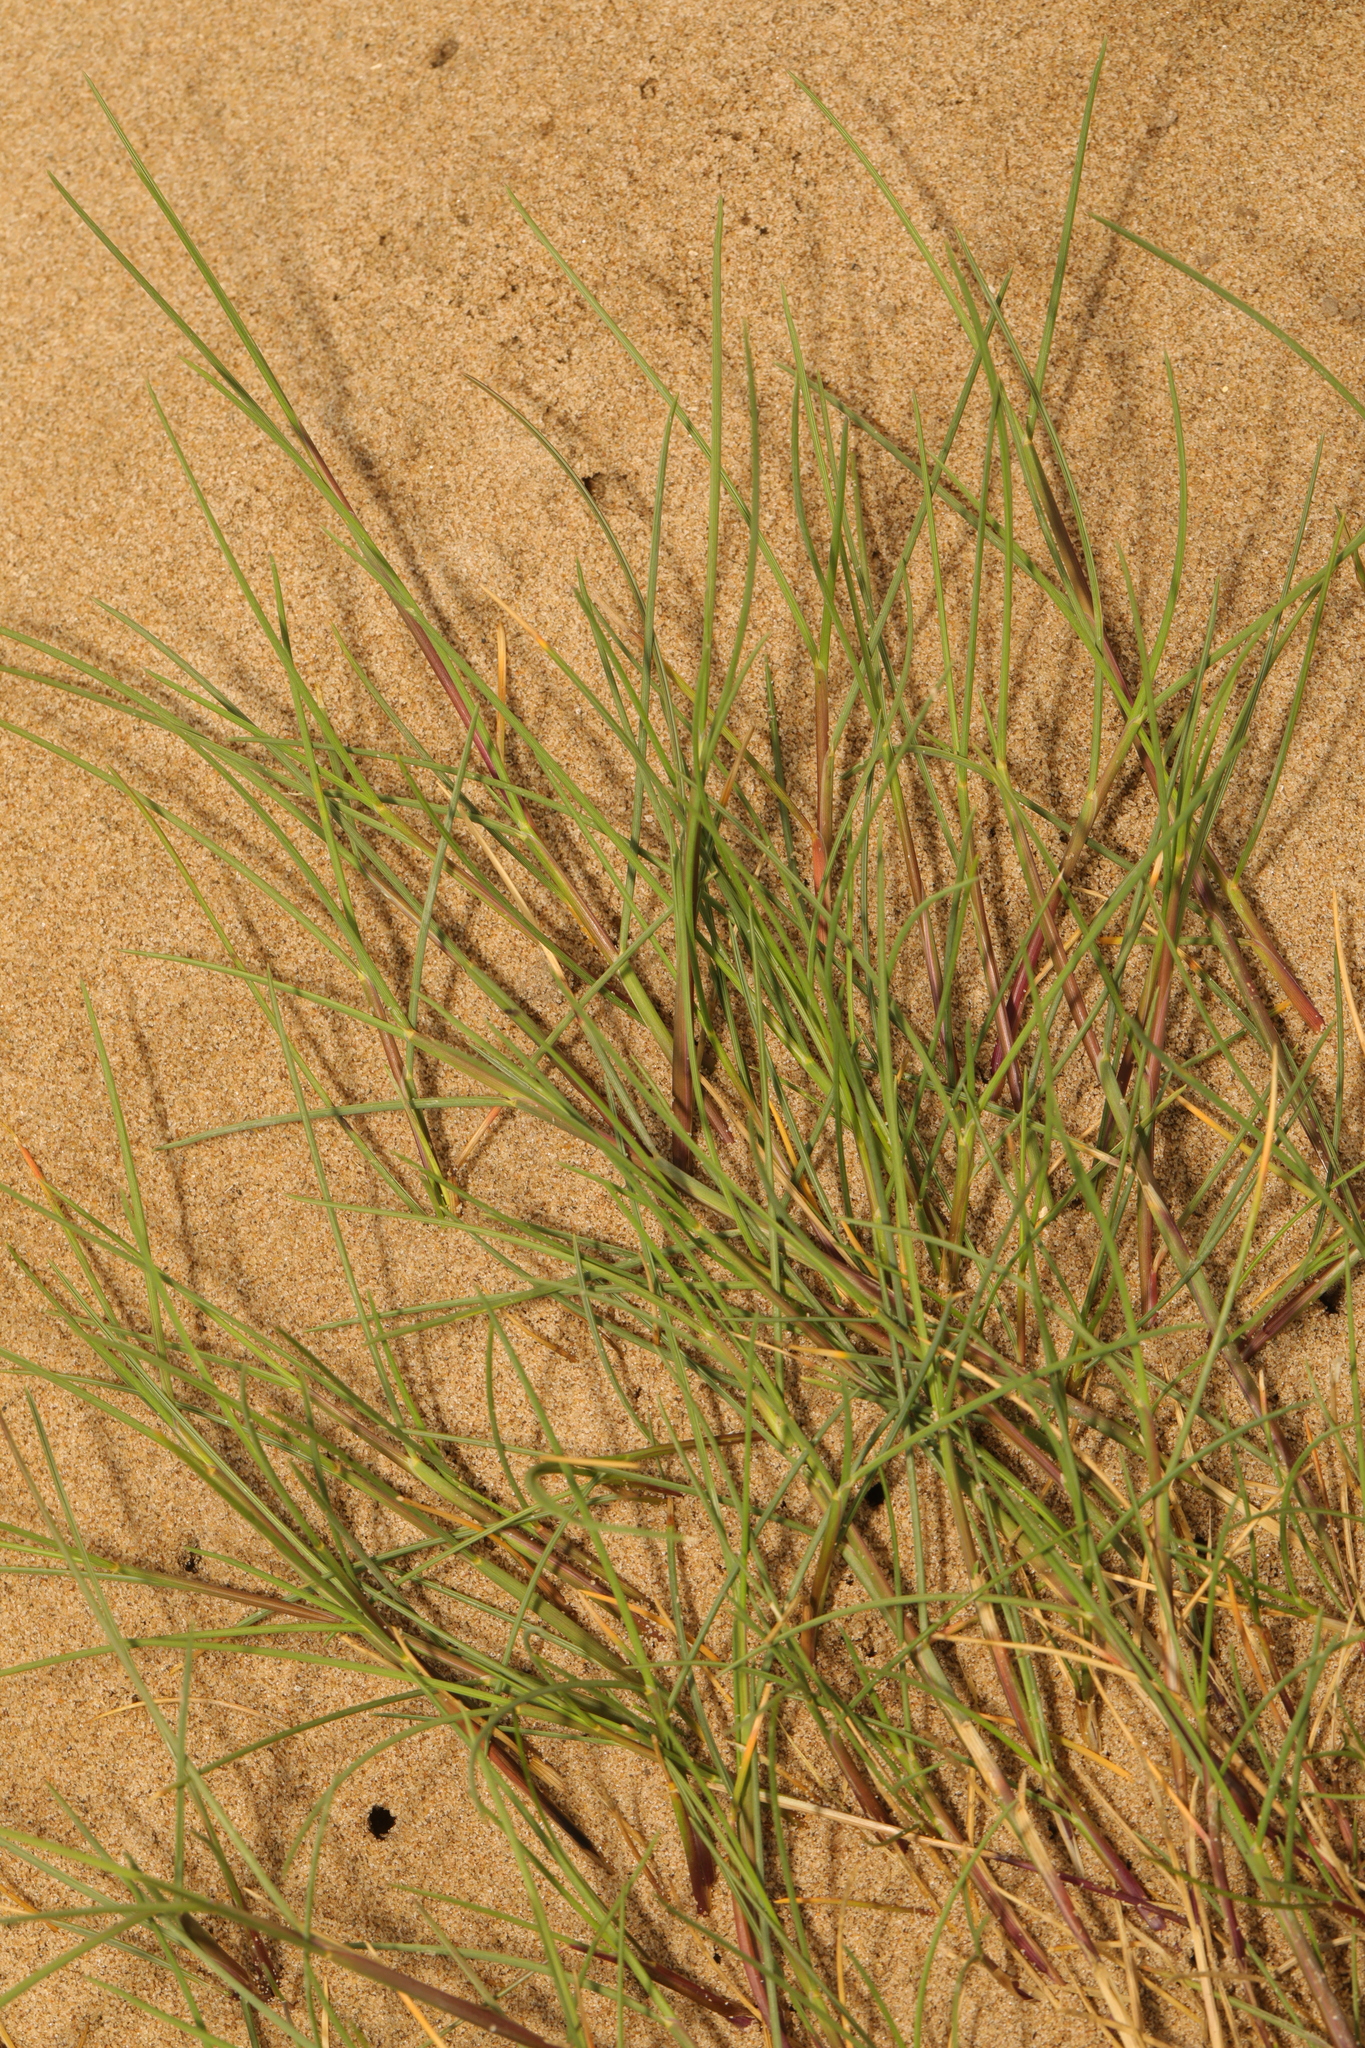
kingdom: Plantae
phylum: Tracheophyta
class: Liliopsida
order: Poales
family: Poaceae
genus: Agrostis
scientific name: Agrostis stolonifera
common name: Creeping bentgrass
